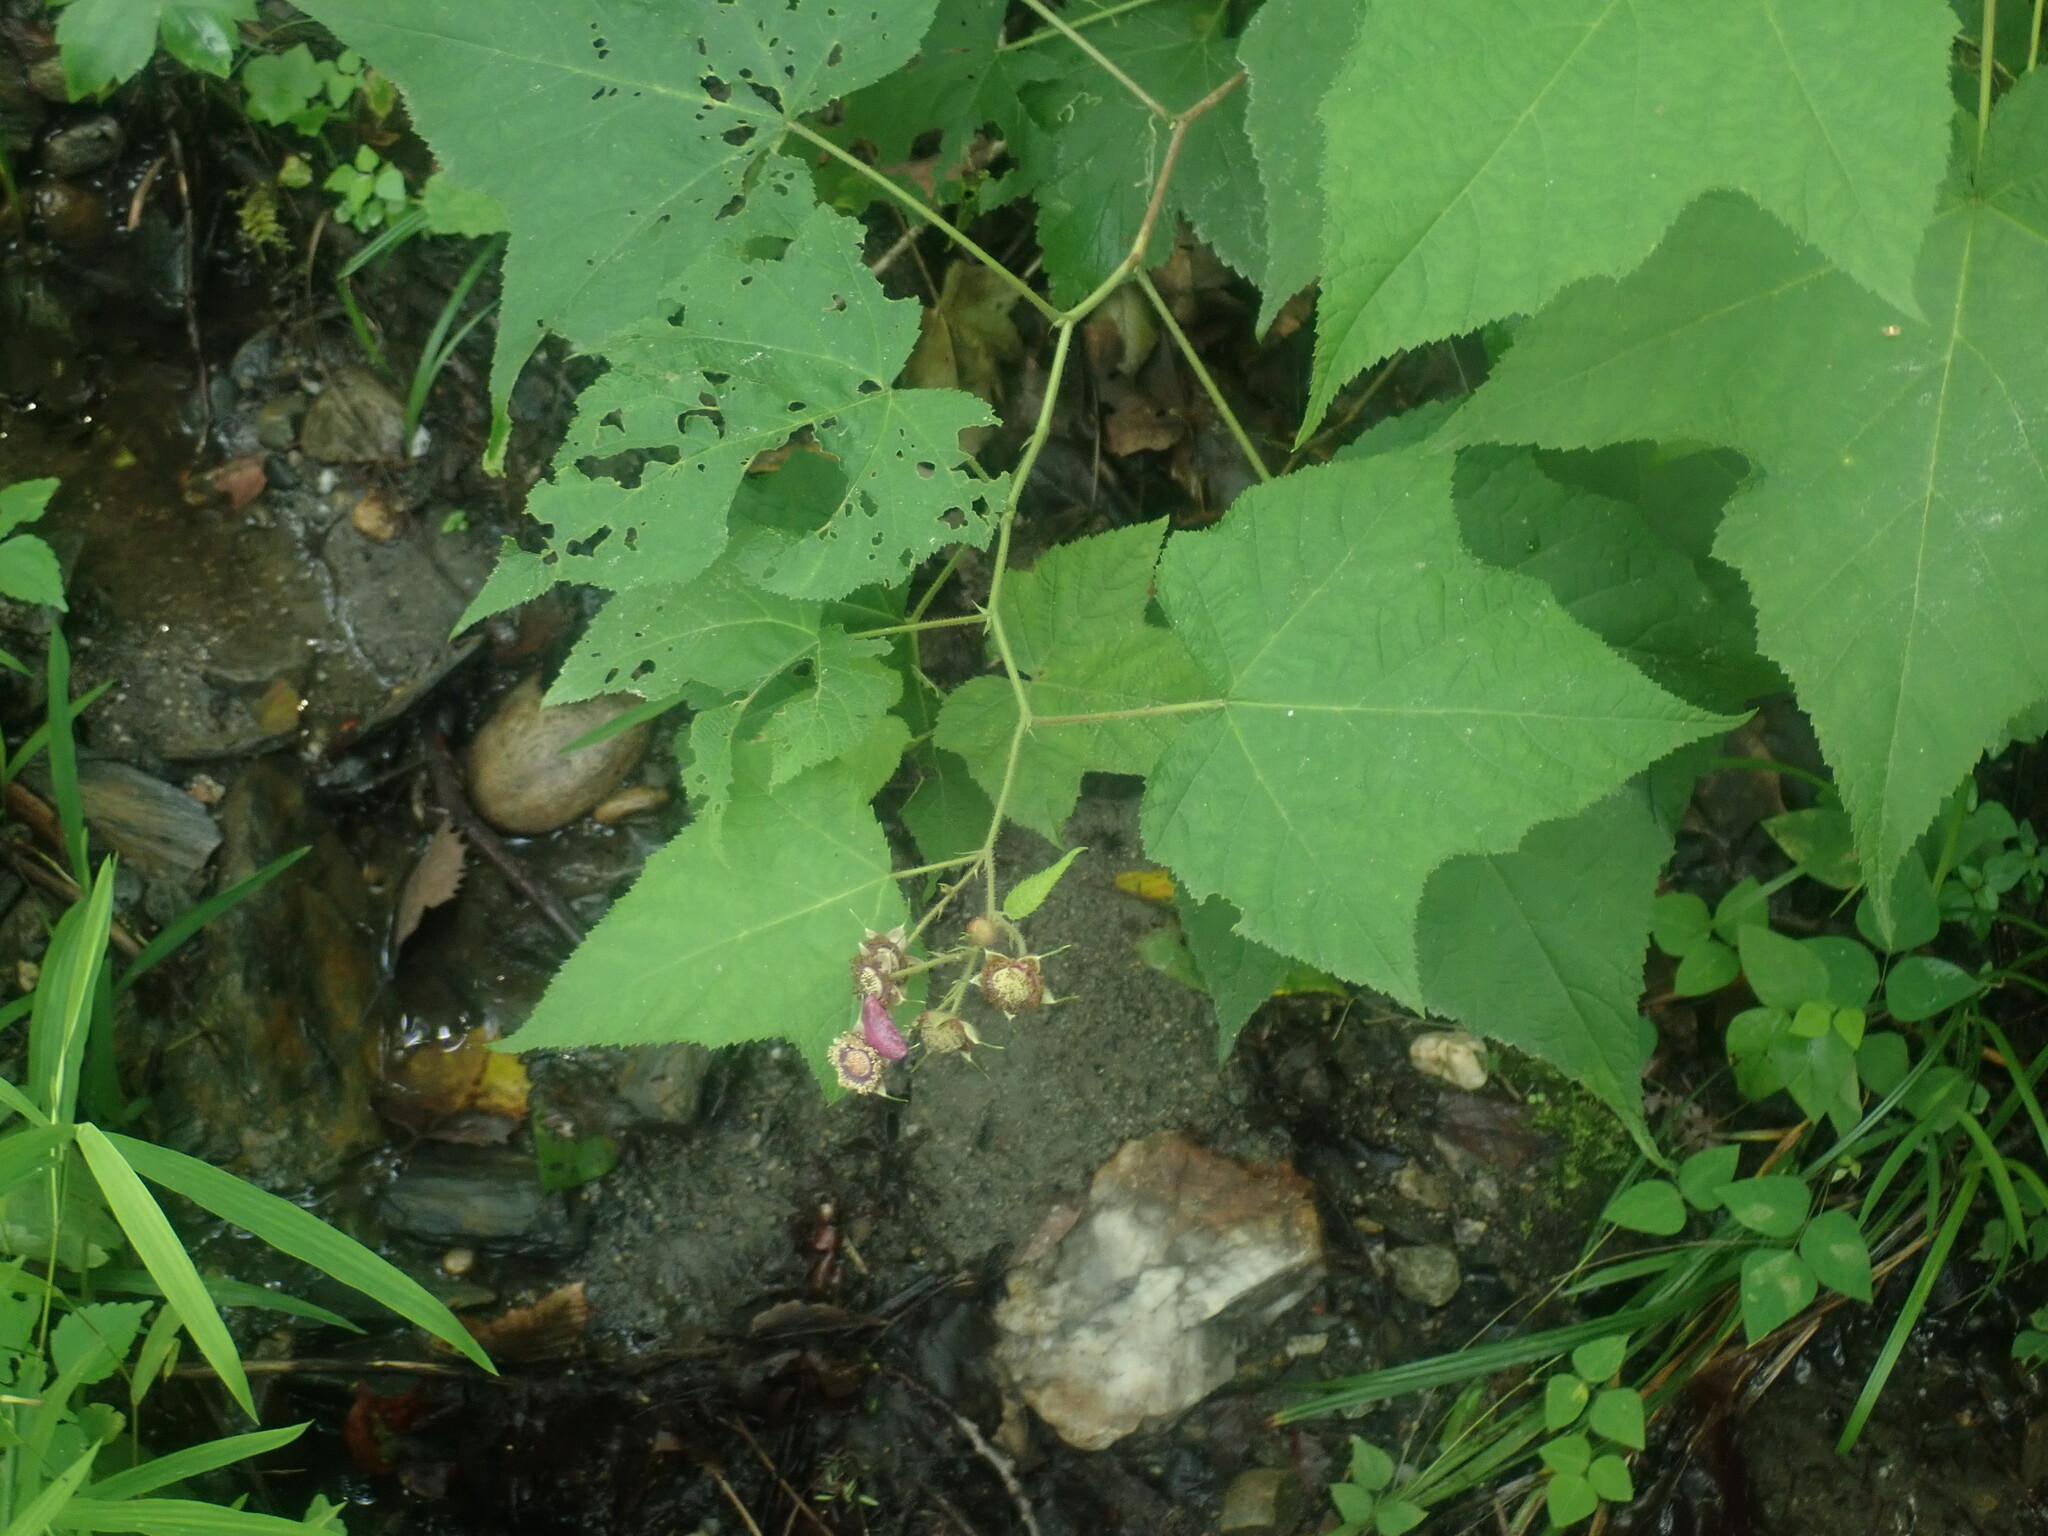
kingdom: Plantae
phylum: Tracheophyta
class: Magnoliopsida
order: Rosales
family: Rosaceae
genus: Rubus
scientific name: Rubus odoratus
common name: Purple-flowered raspberry
